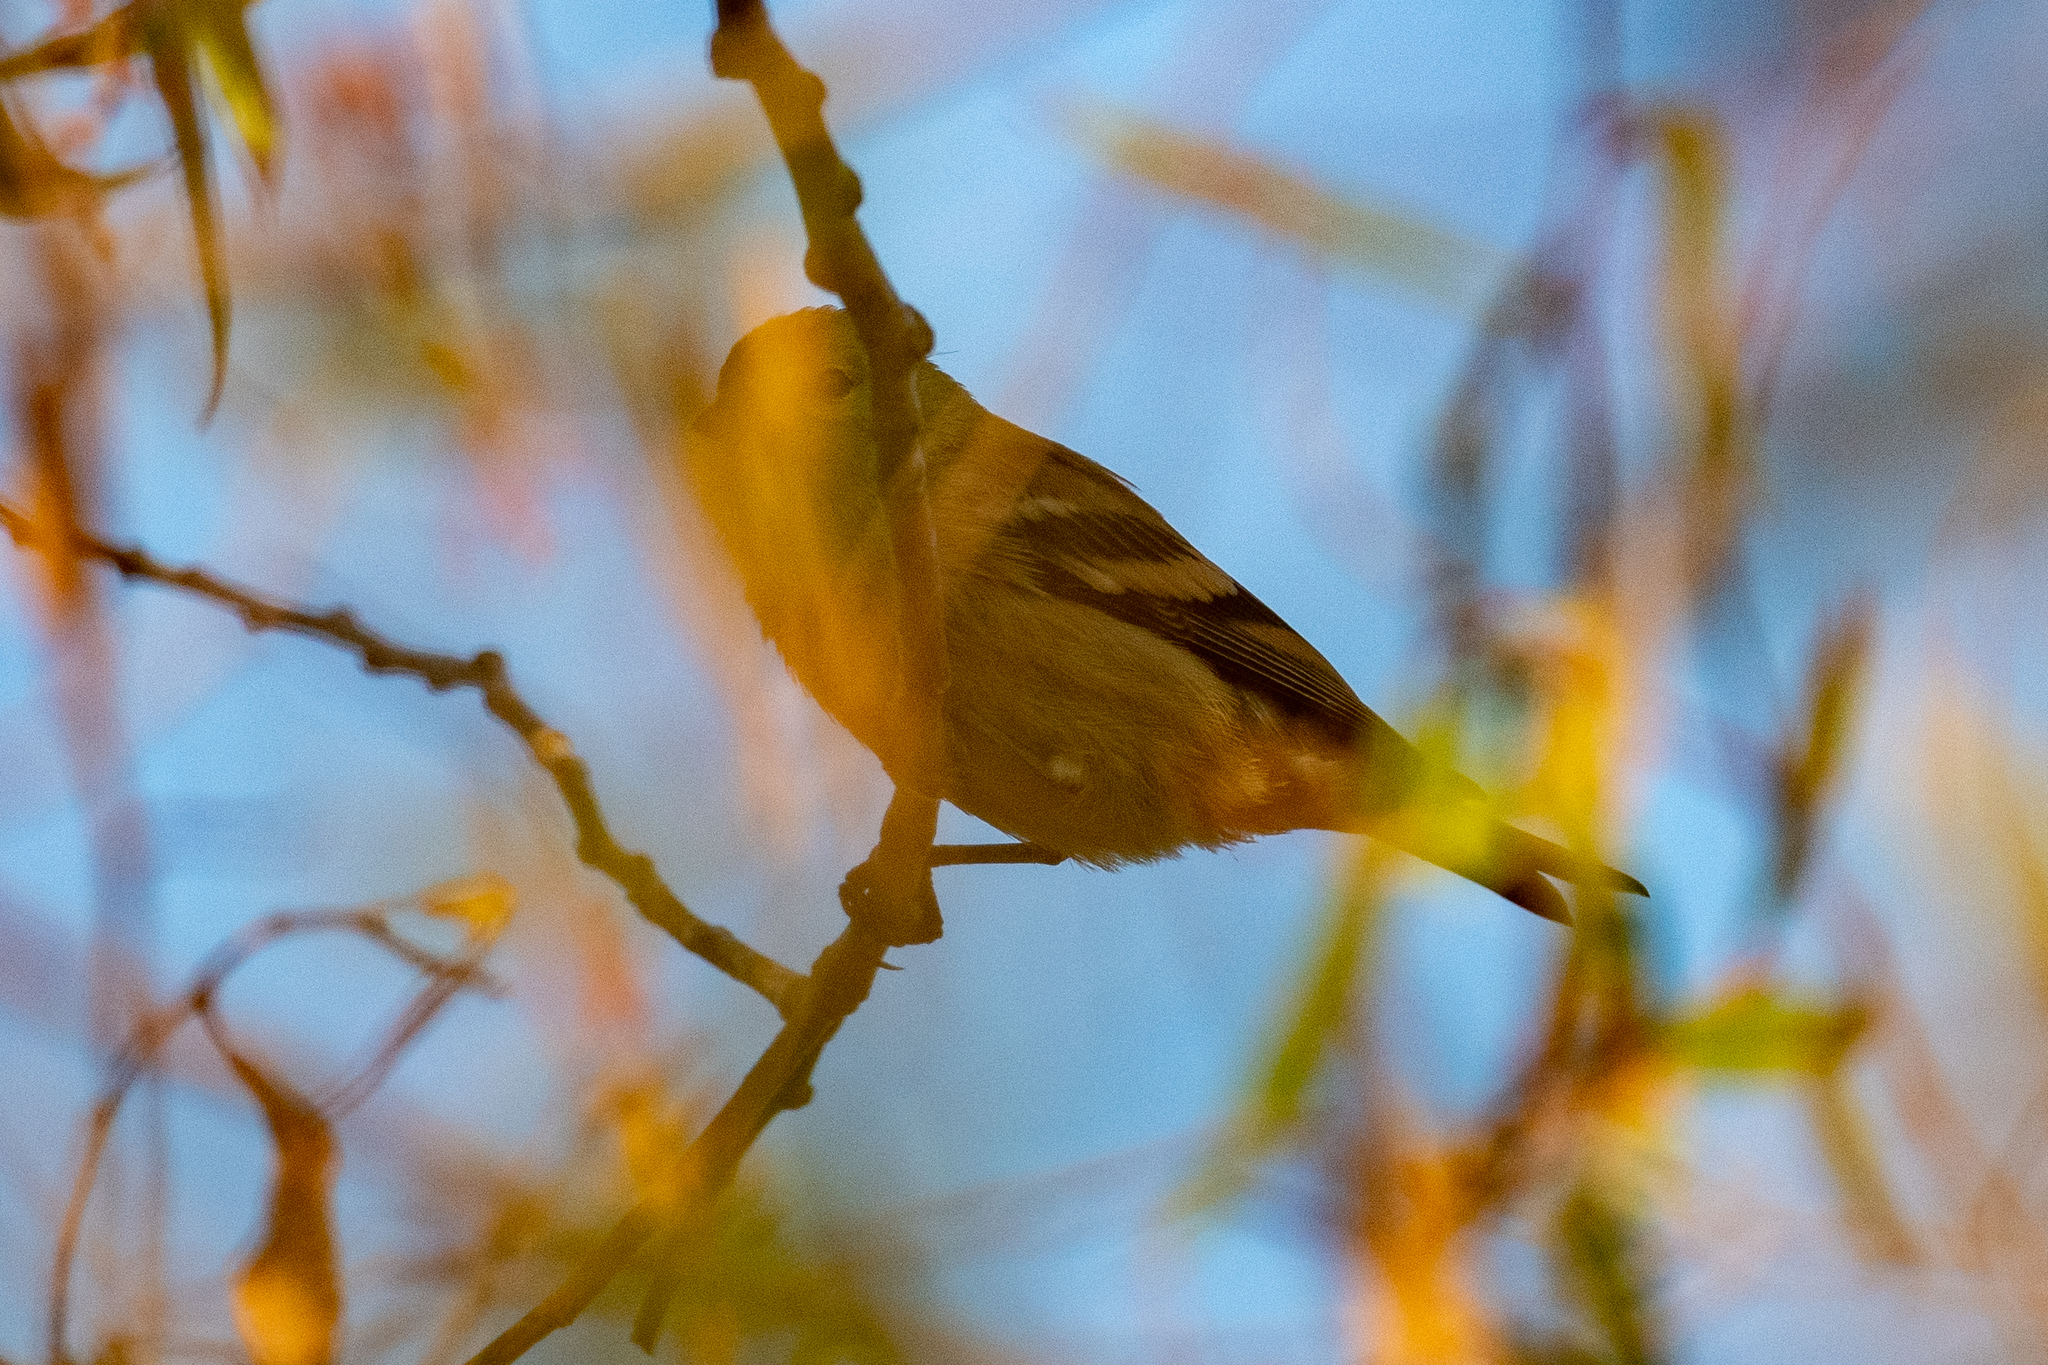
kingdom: Animalia
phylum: Chordata
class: Aves
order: Passeriformes
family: Fringillidae
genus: Spinus
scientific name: Spinus tristis
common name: American goldfinch
